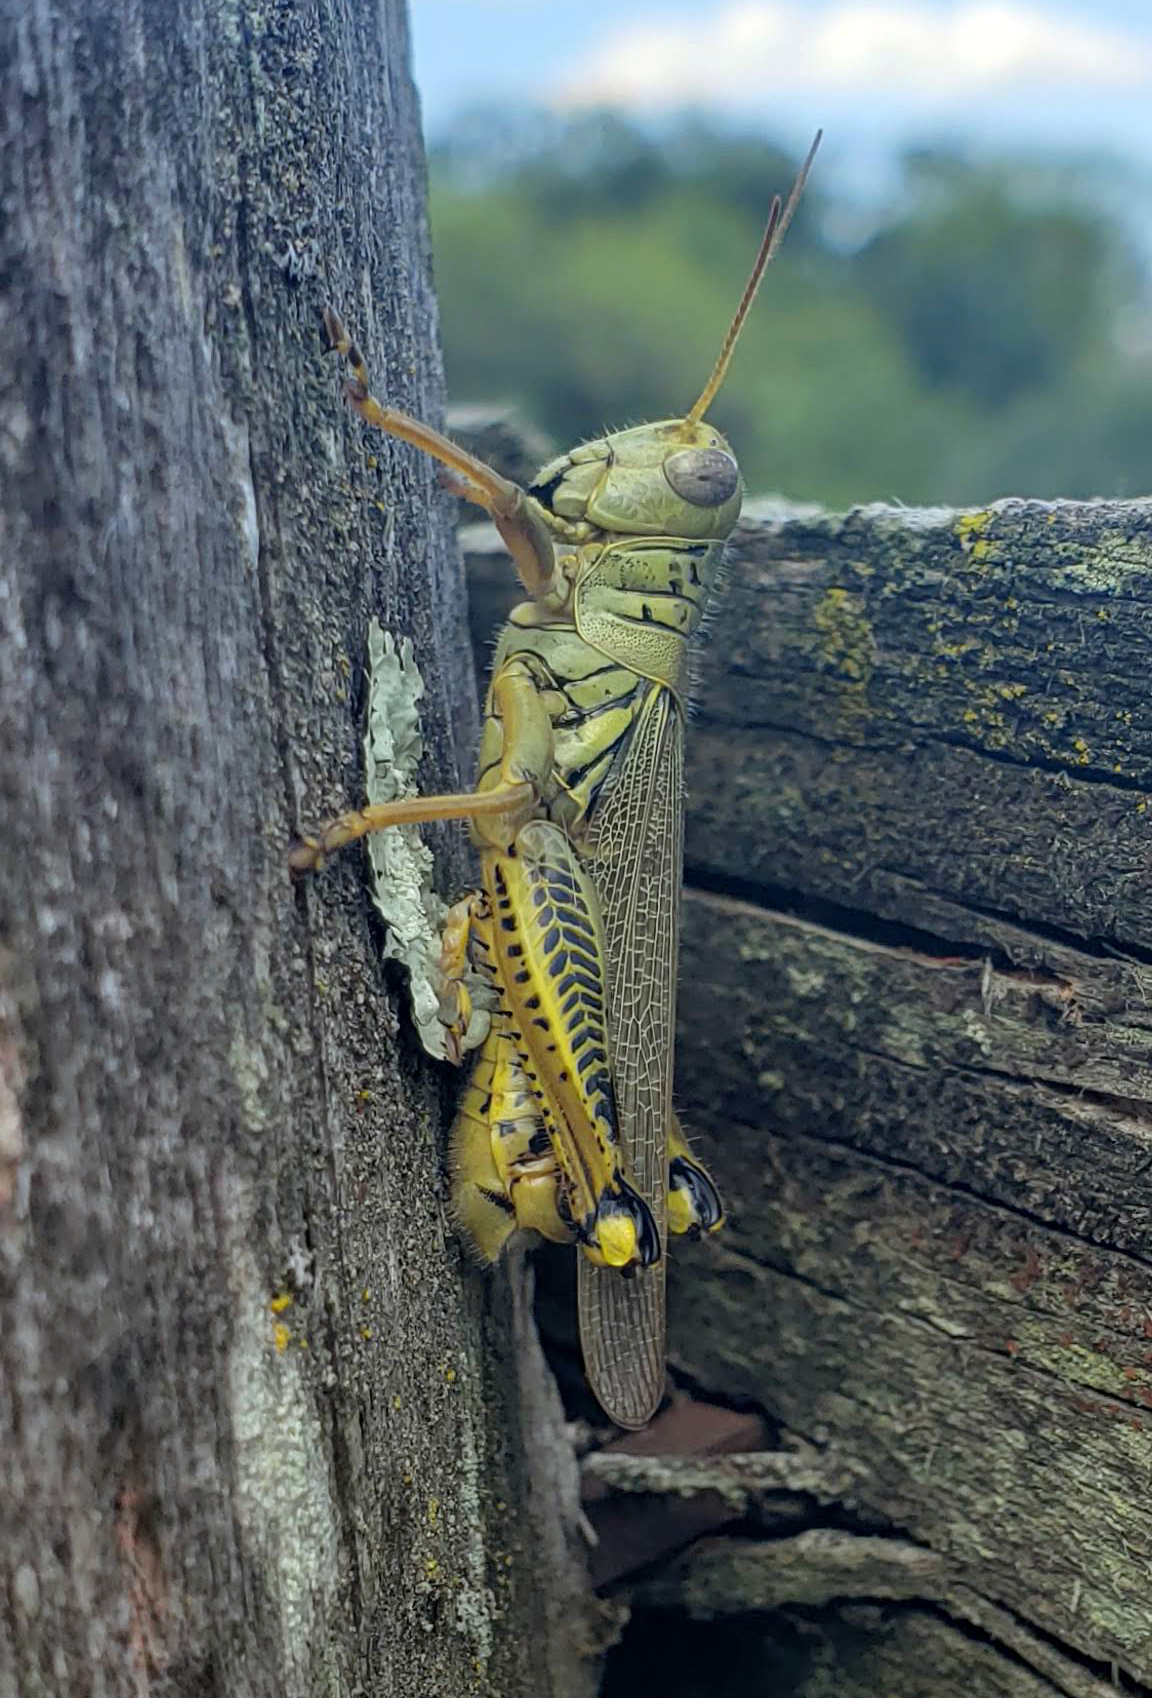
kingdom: Animalia
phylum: Arthropoda
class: Insecta
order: Orthoptera
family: Acrididae
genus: Melanoplus
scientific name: Melanoplus differentialis
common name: Differential grasshopper
